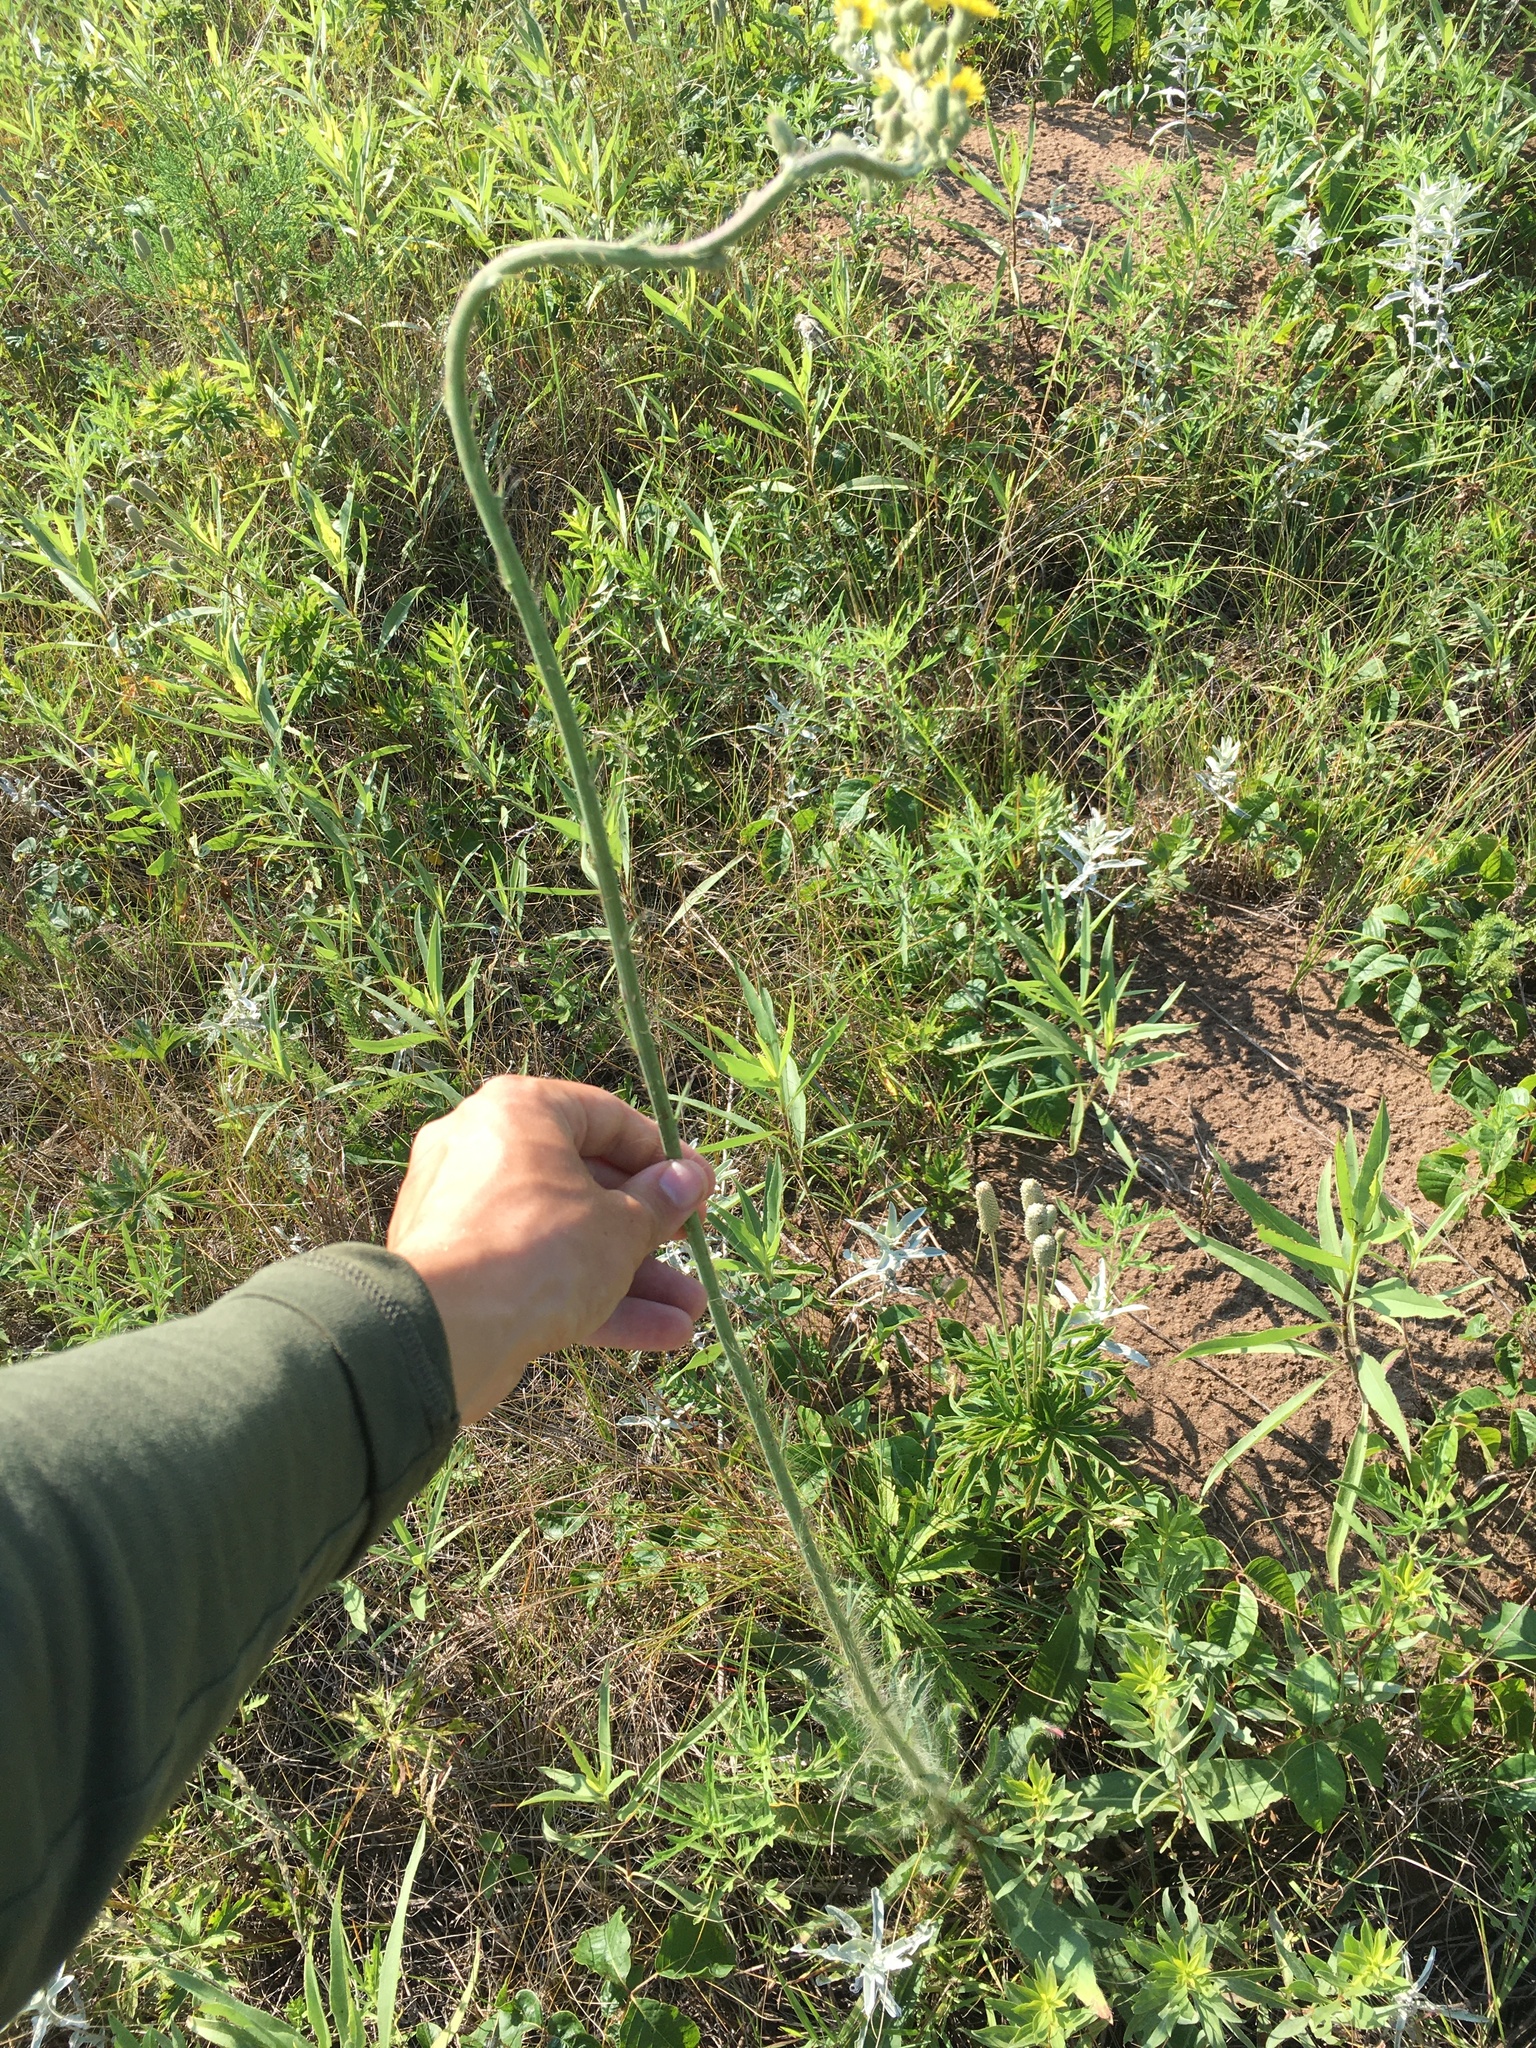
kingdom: Plantae
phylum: Tracheophyta
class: Magnoliopsida
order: Asterales
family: Asteraceae
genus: Hieracium
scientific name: Hieracium longipilum
